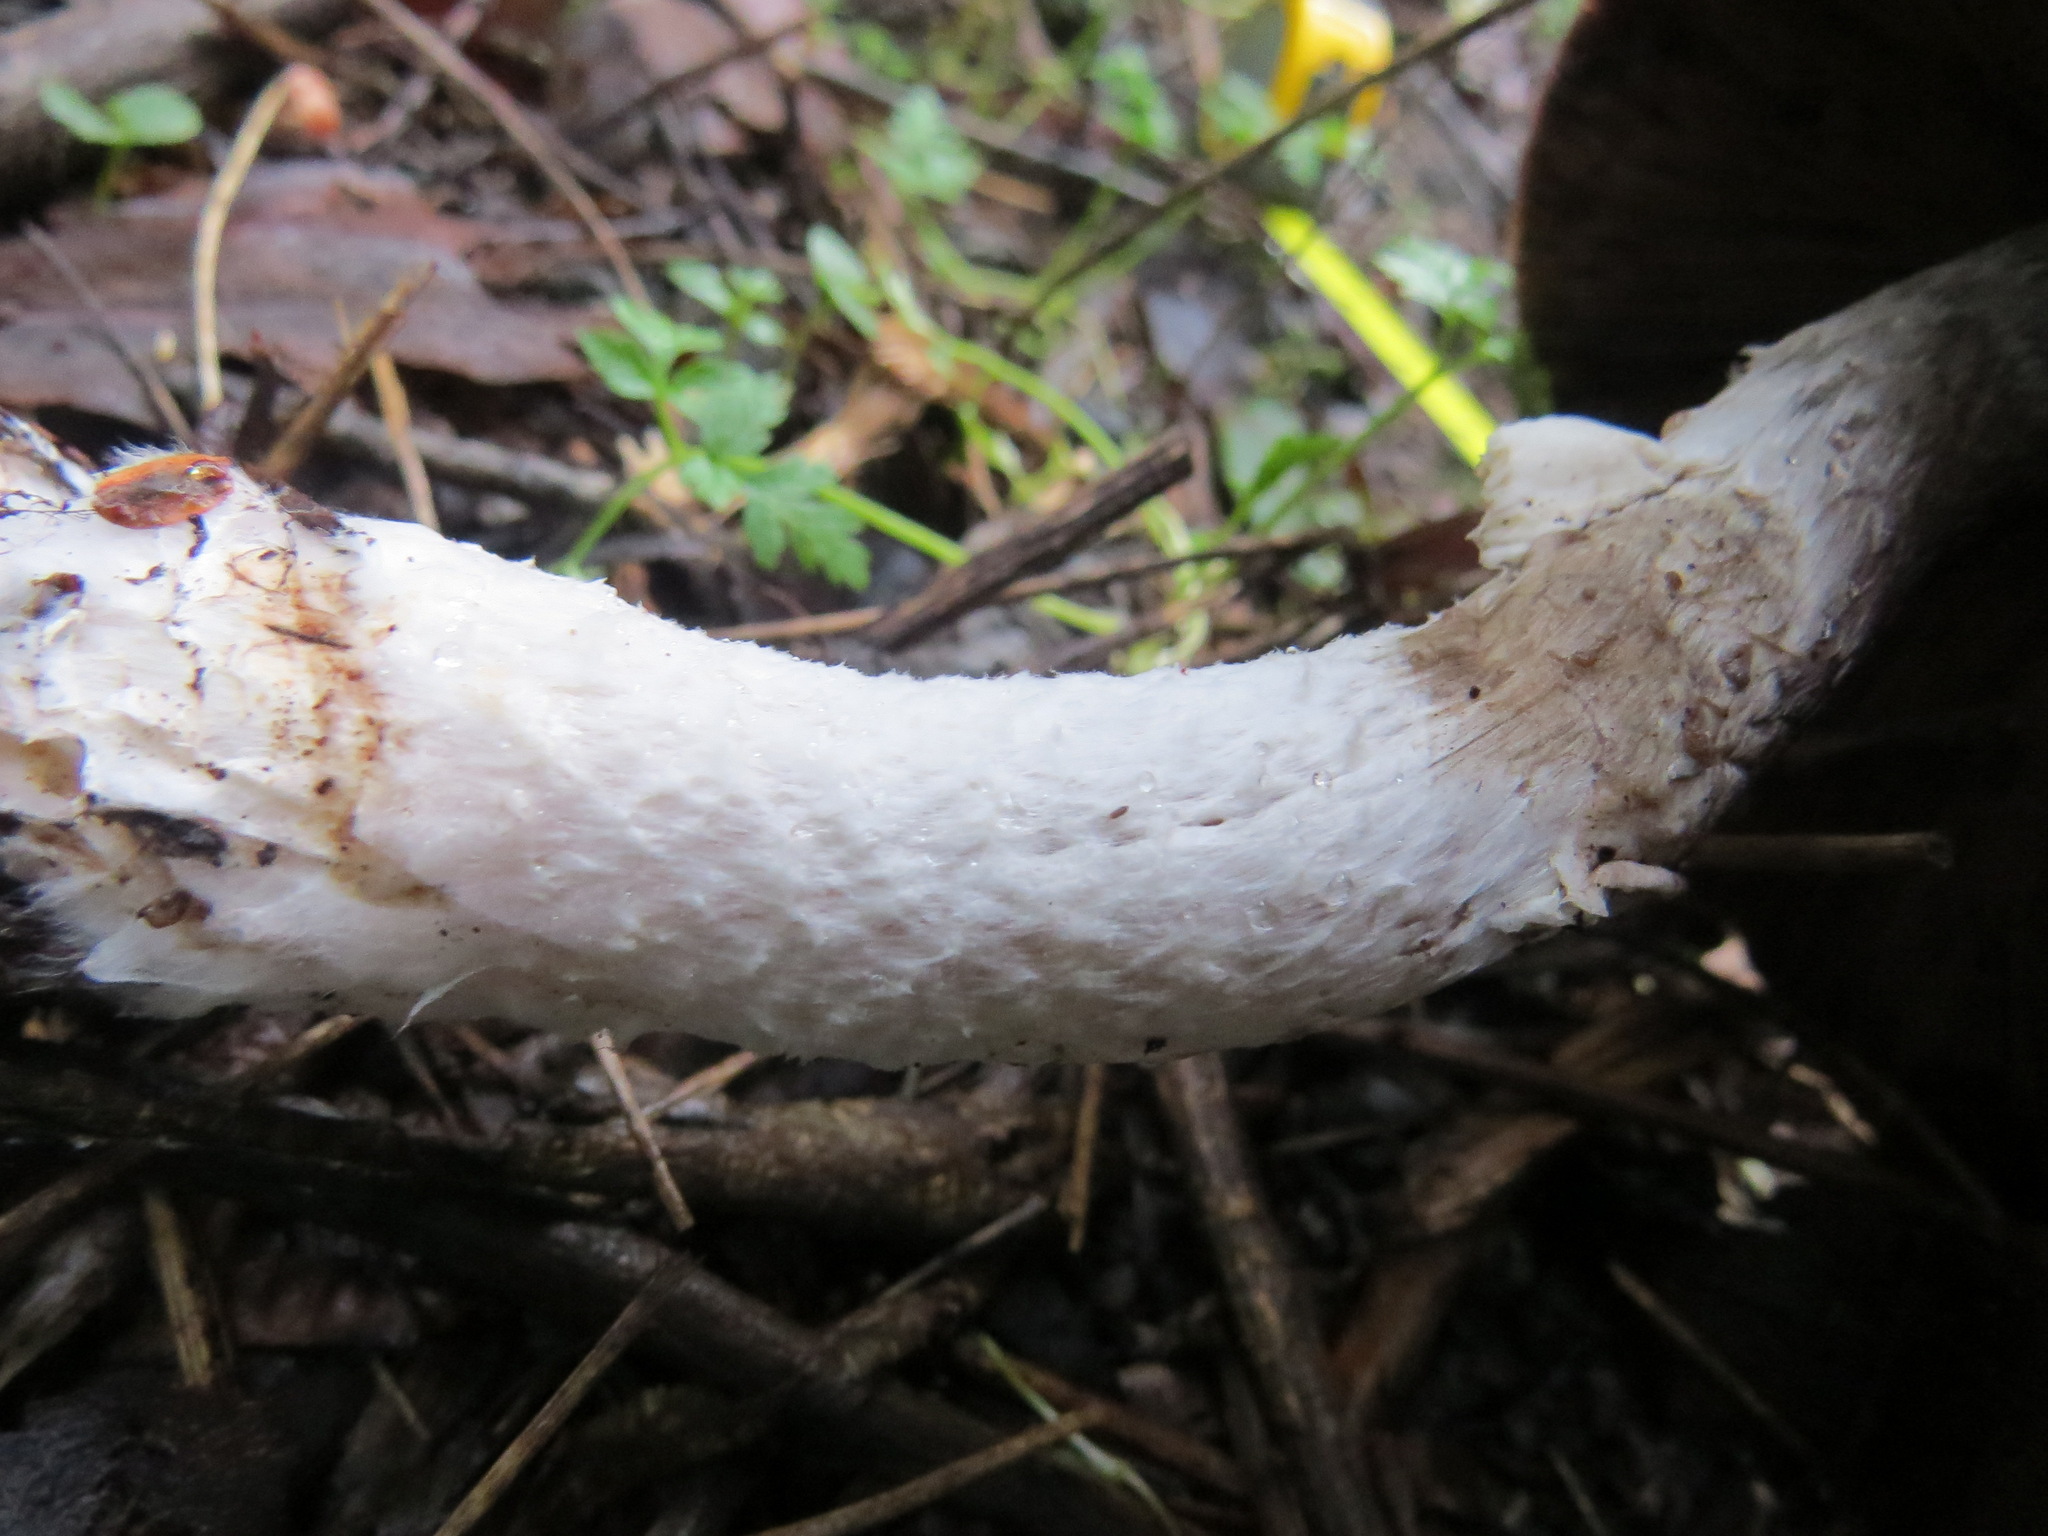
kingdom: Fungi
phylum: Basidiomycota
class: Agaricomycetes
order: Agaricales
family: Agaricaceae
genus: Agaricus
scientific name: Agaricus subrutilescens
